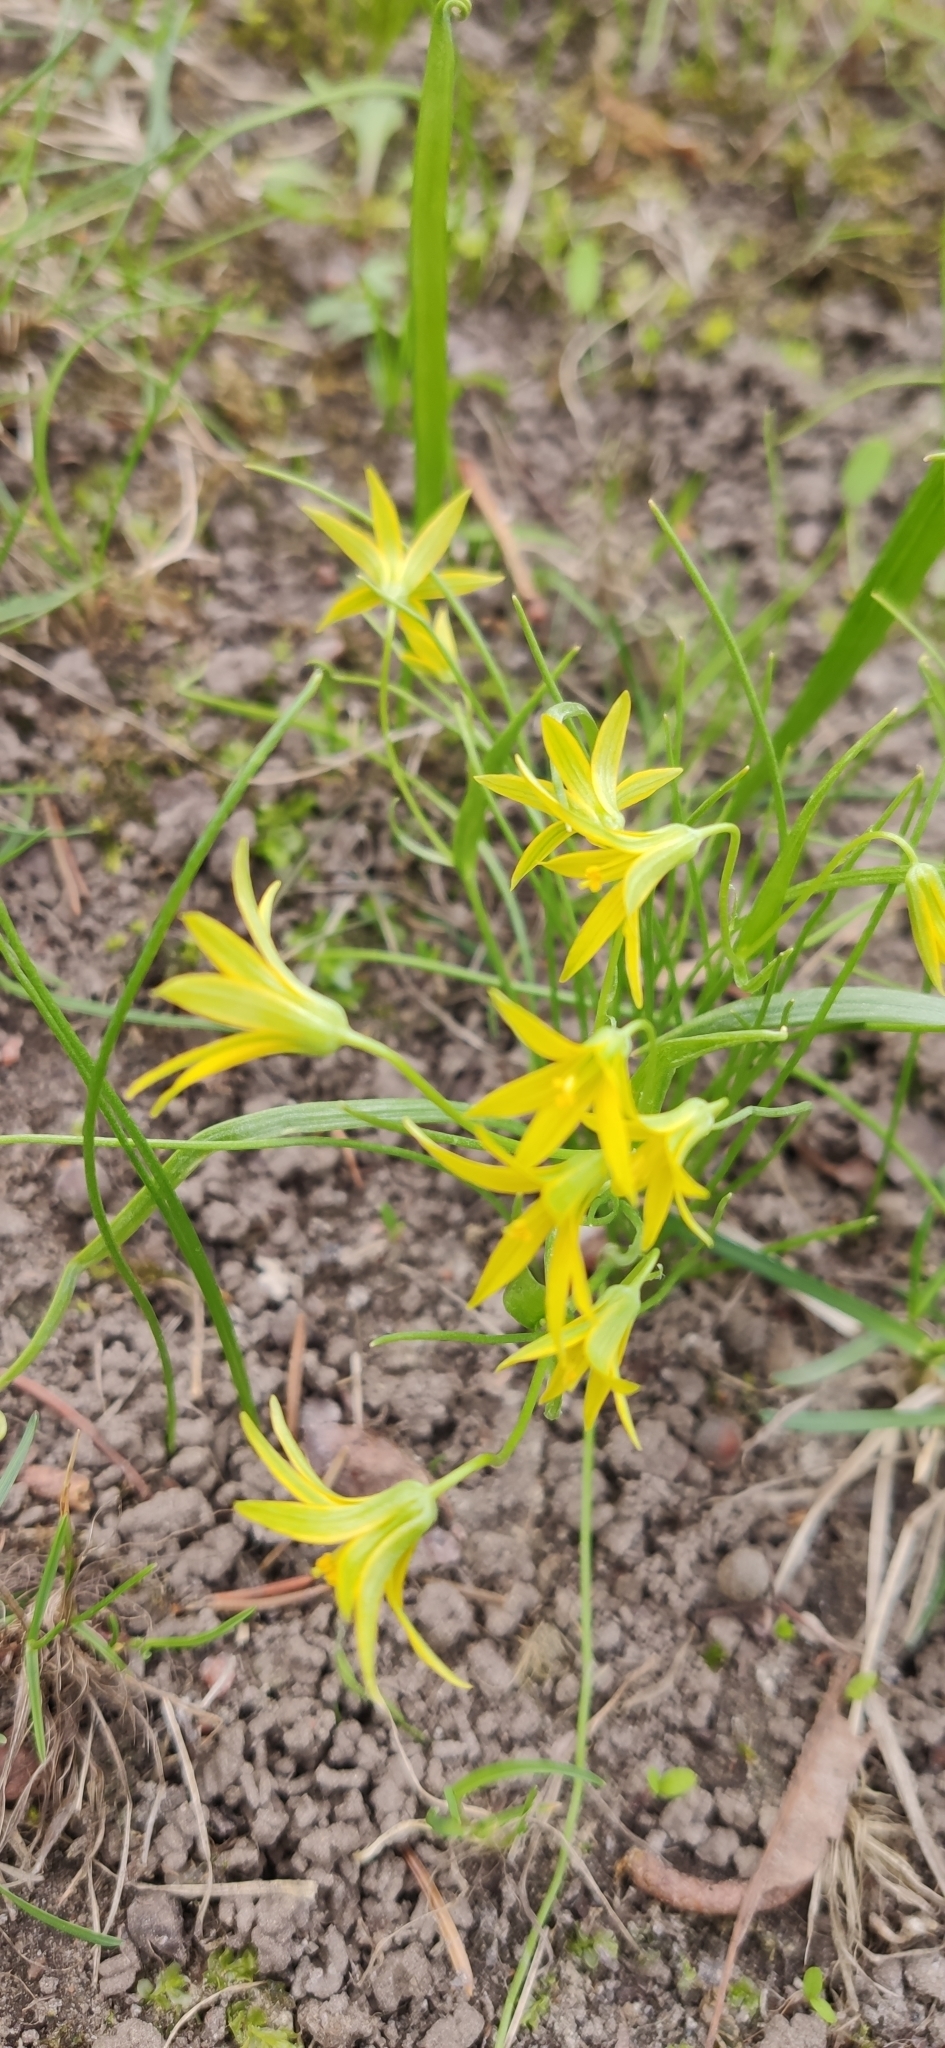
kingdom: Plantae
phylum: Tracheophyta
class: Liliopsida
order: Liliales
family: Liliaceae
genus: Gagea
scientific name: Gagea minima
